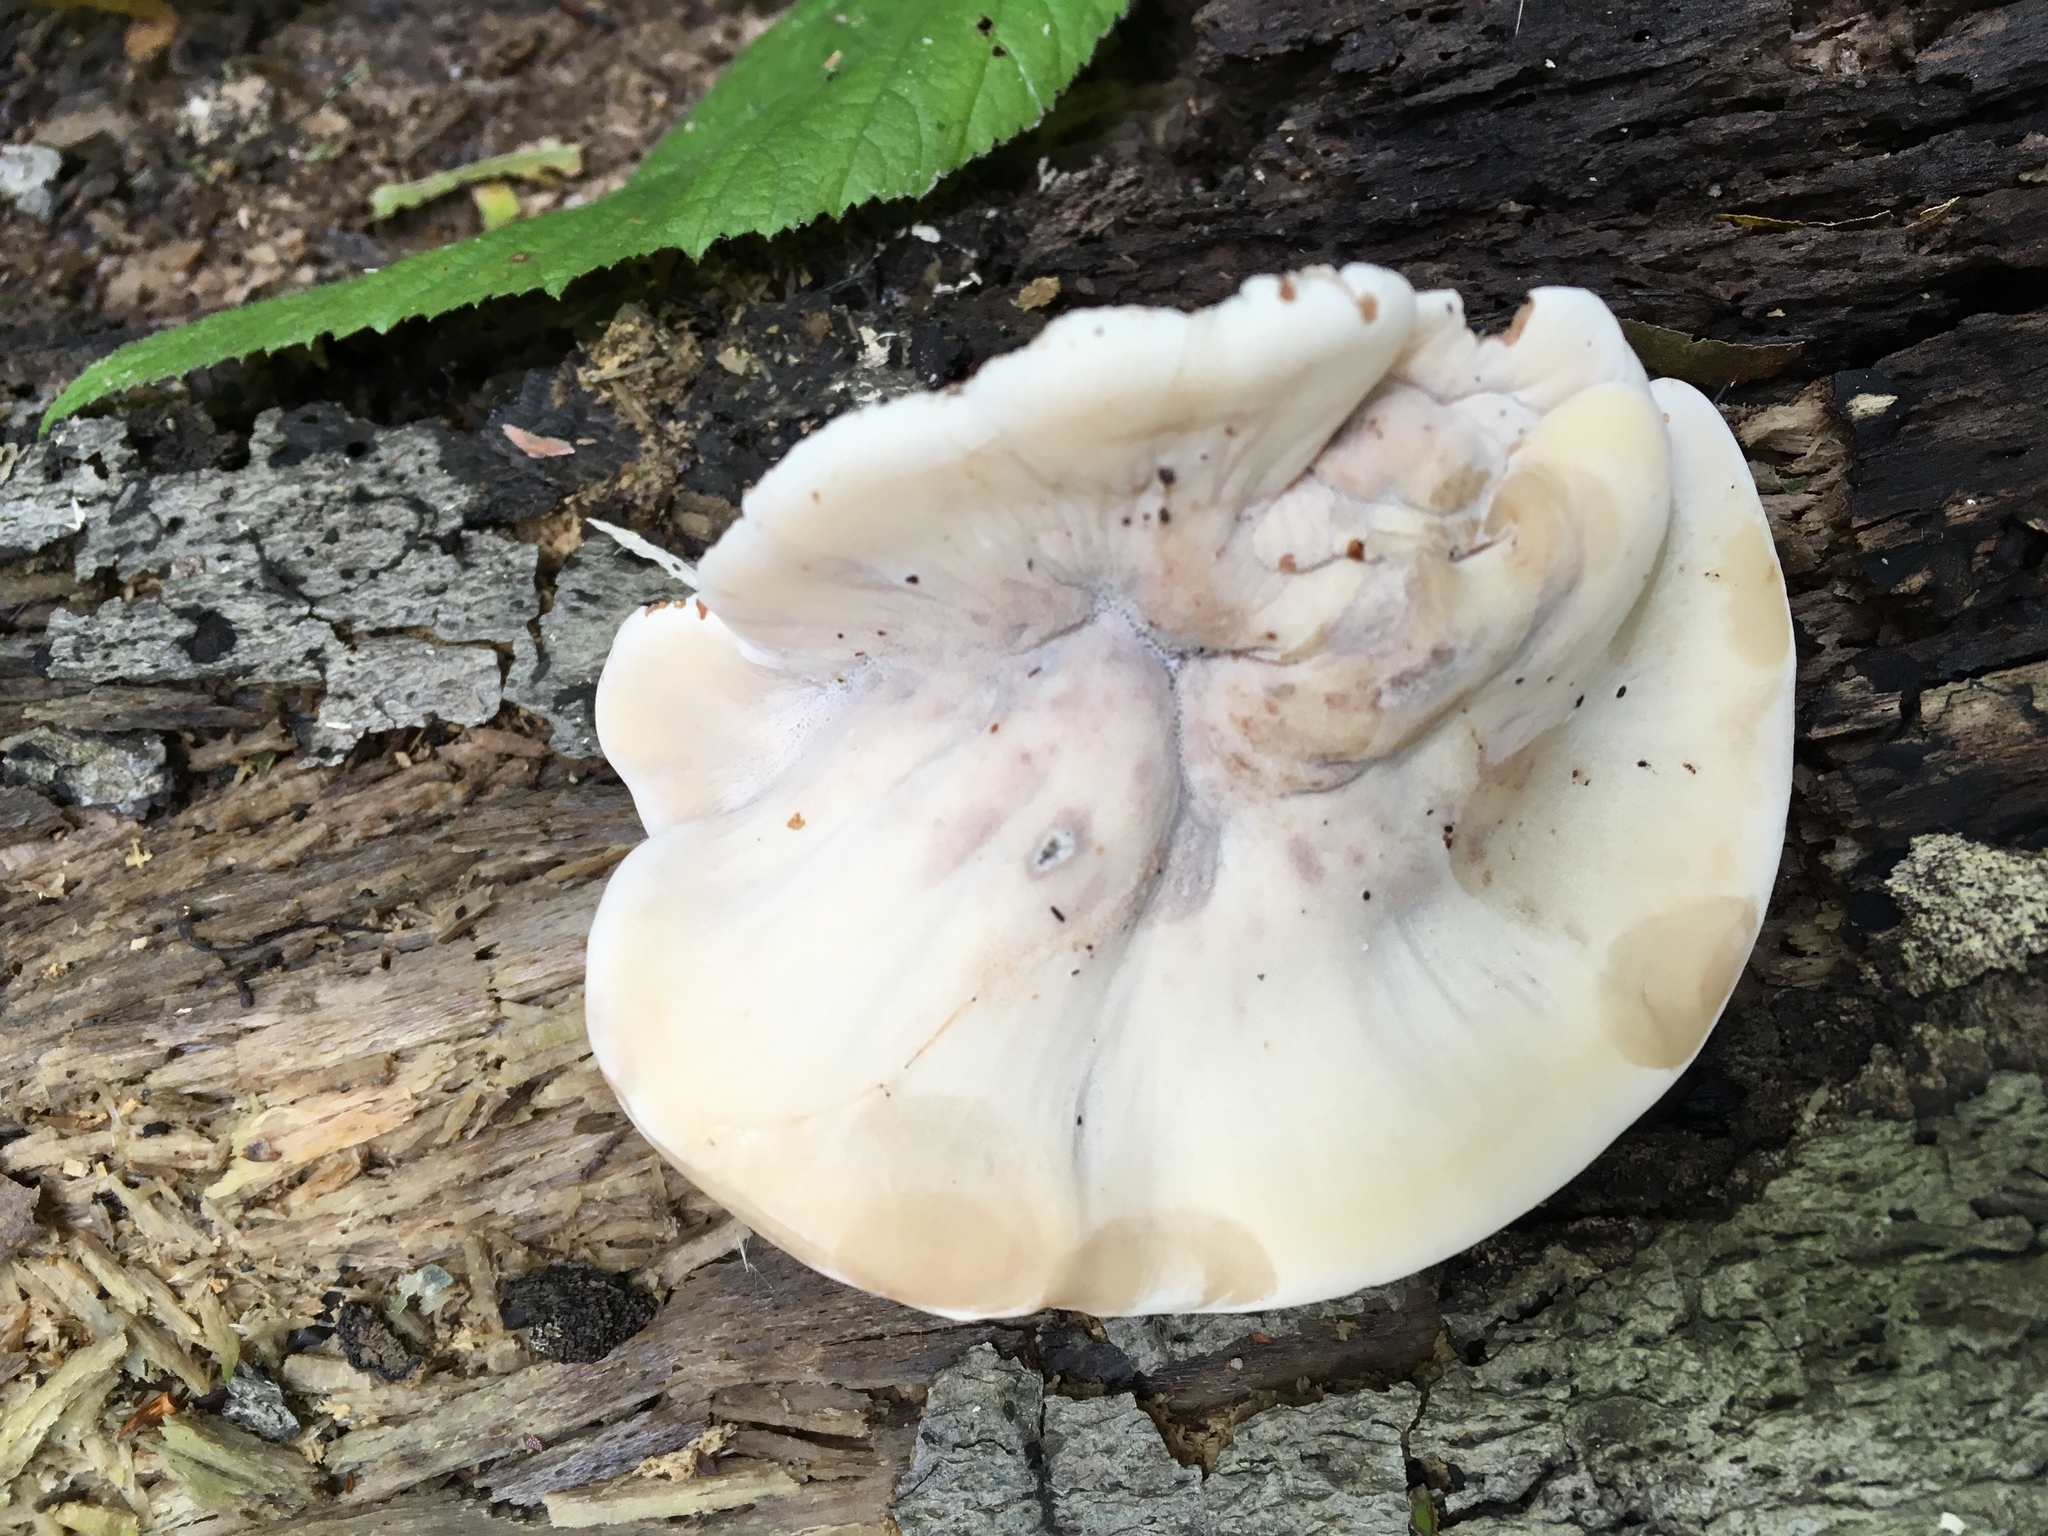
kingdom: Fungi
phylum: Basidiomycota
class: Agaricomycetes
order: Polyporales
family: Ischnodermataceae
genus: Ischnoderma
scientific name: Ischnoderma resinosum
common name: Resinous polypore
